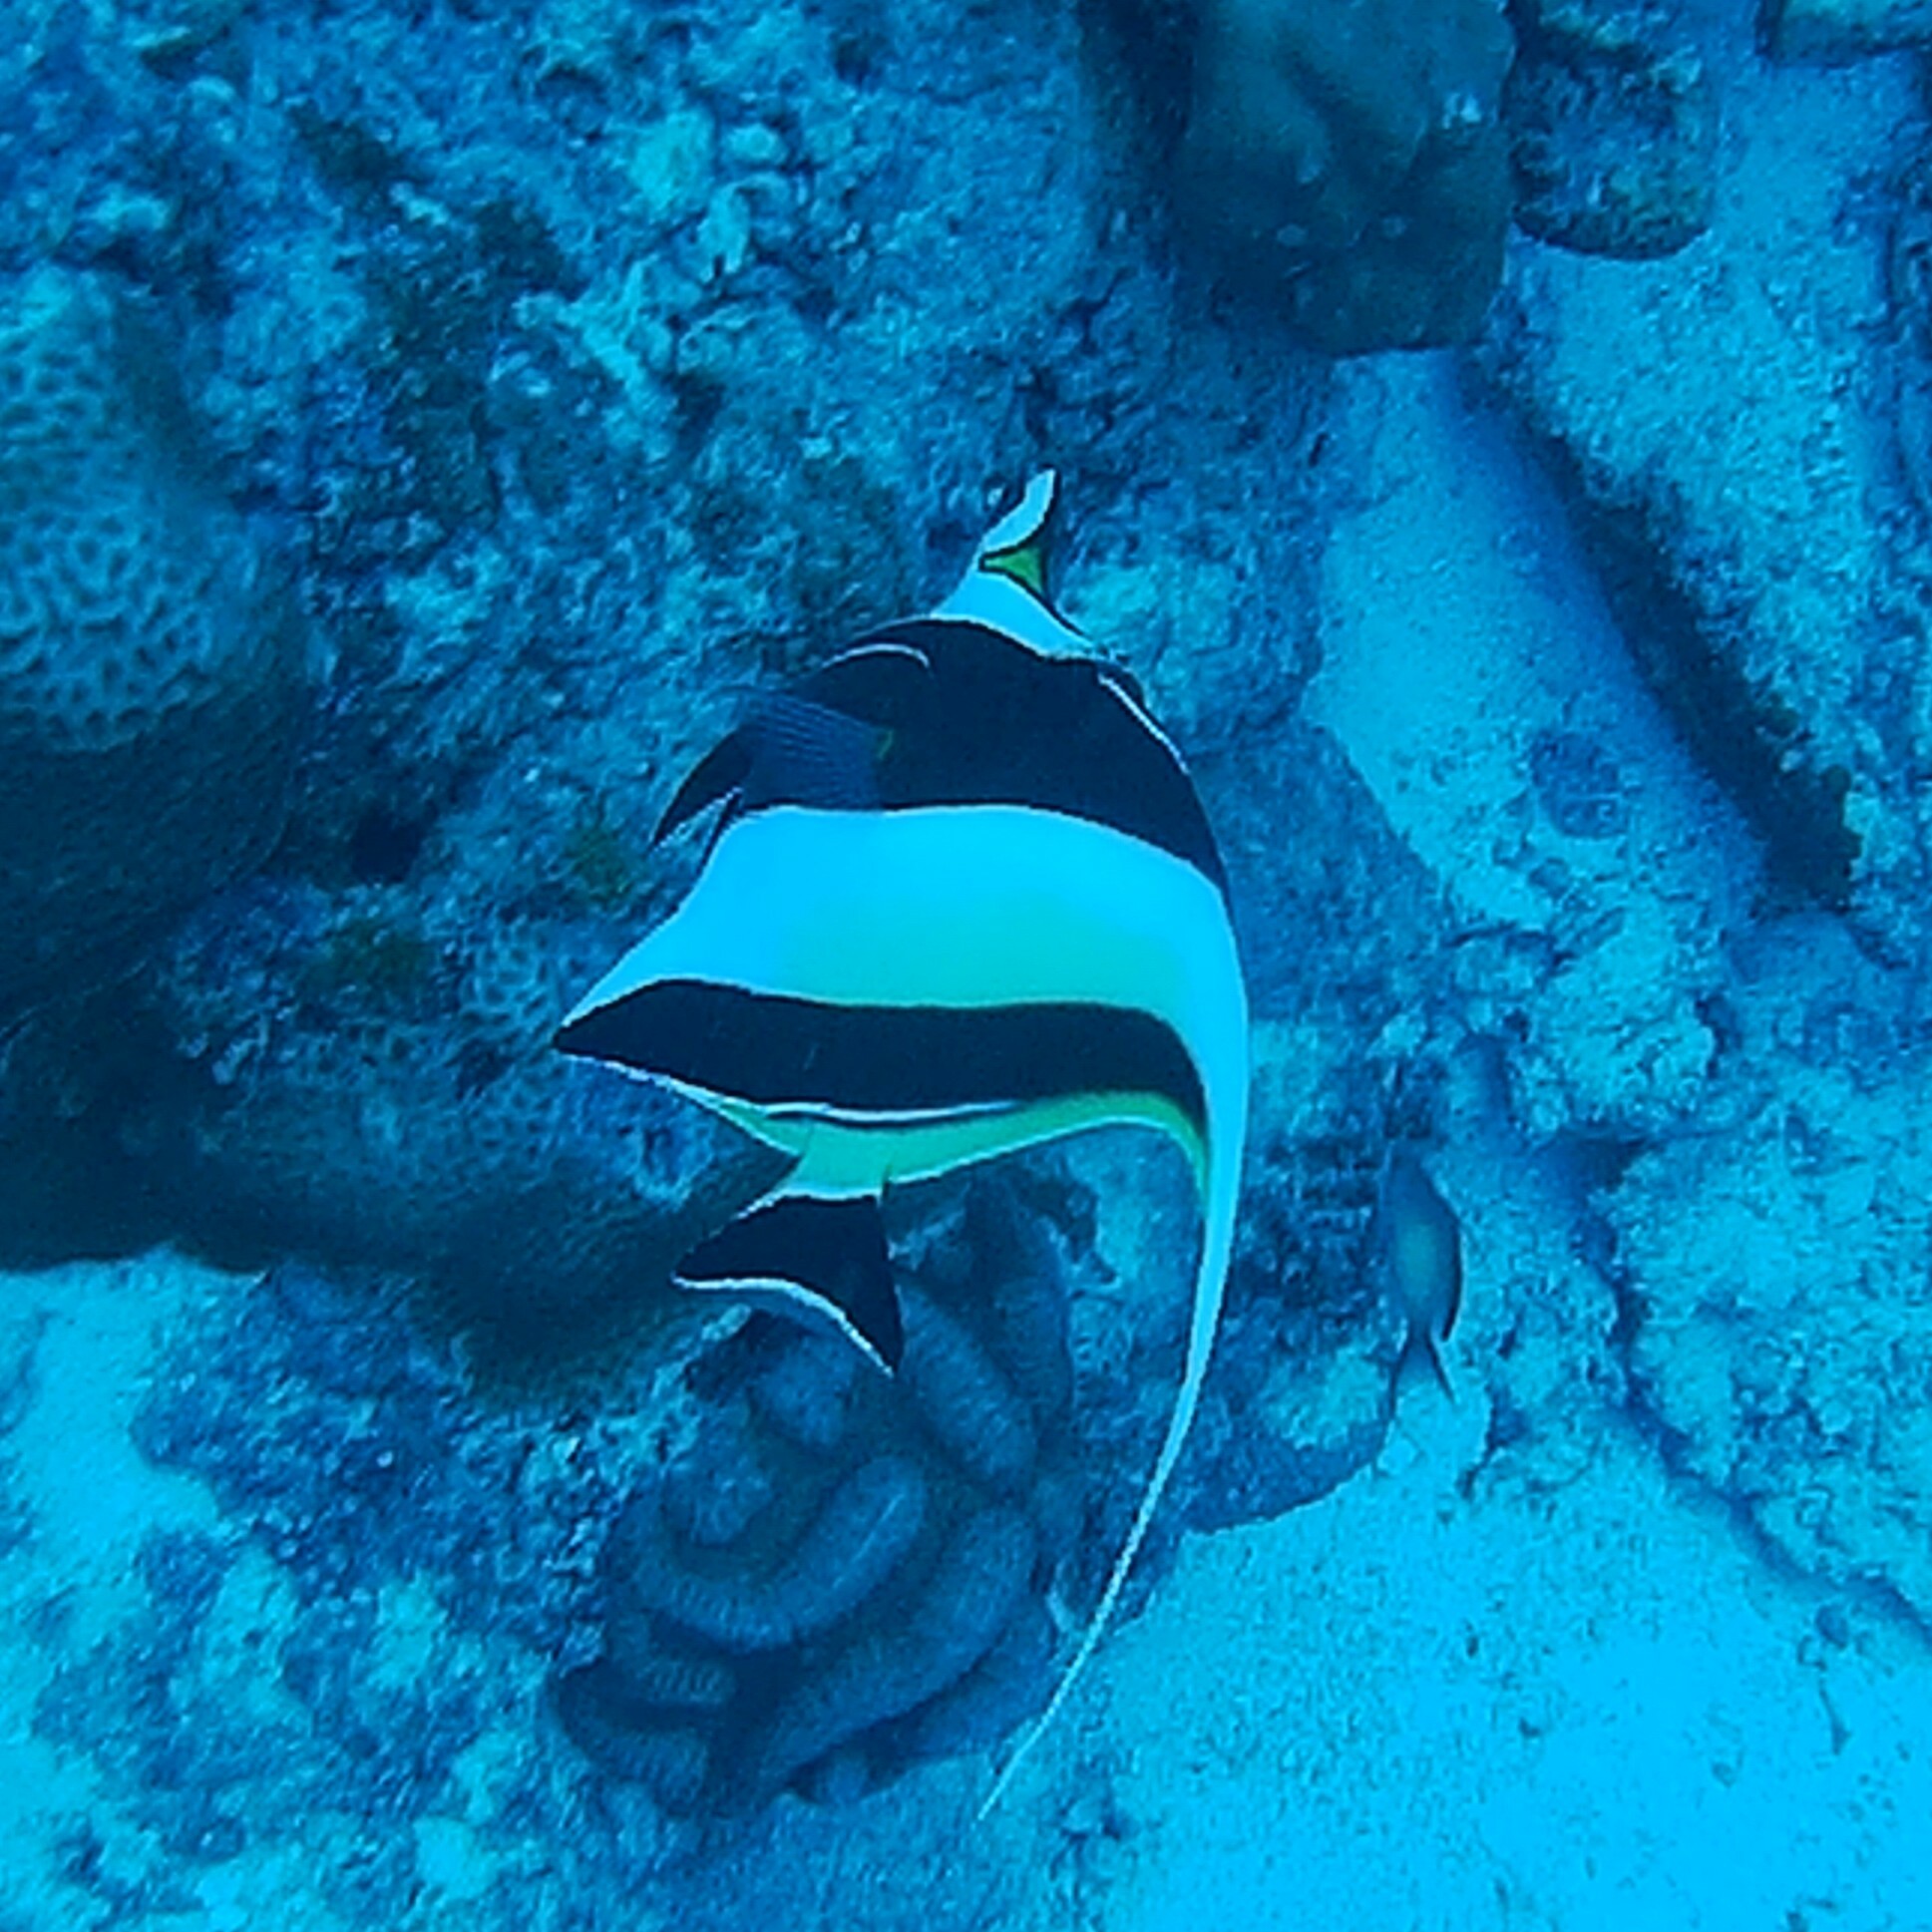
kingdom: Animalia
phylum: Chordata
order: Perciformes
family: Zanclidae
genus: Zanclus
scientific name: Zanclus cornutus
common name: Moorish idol
